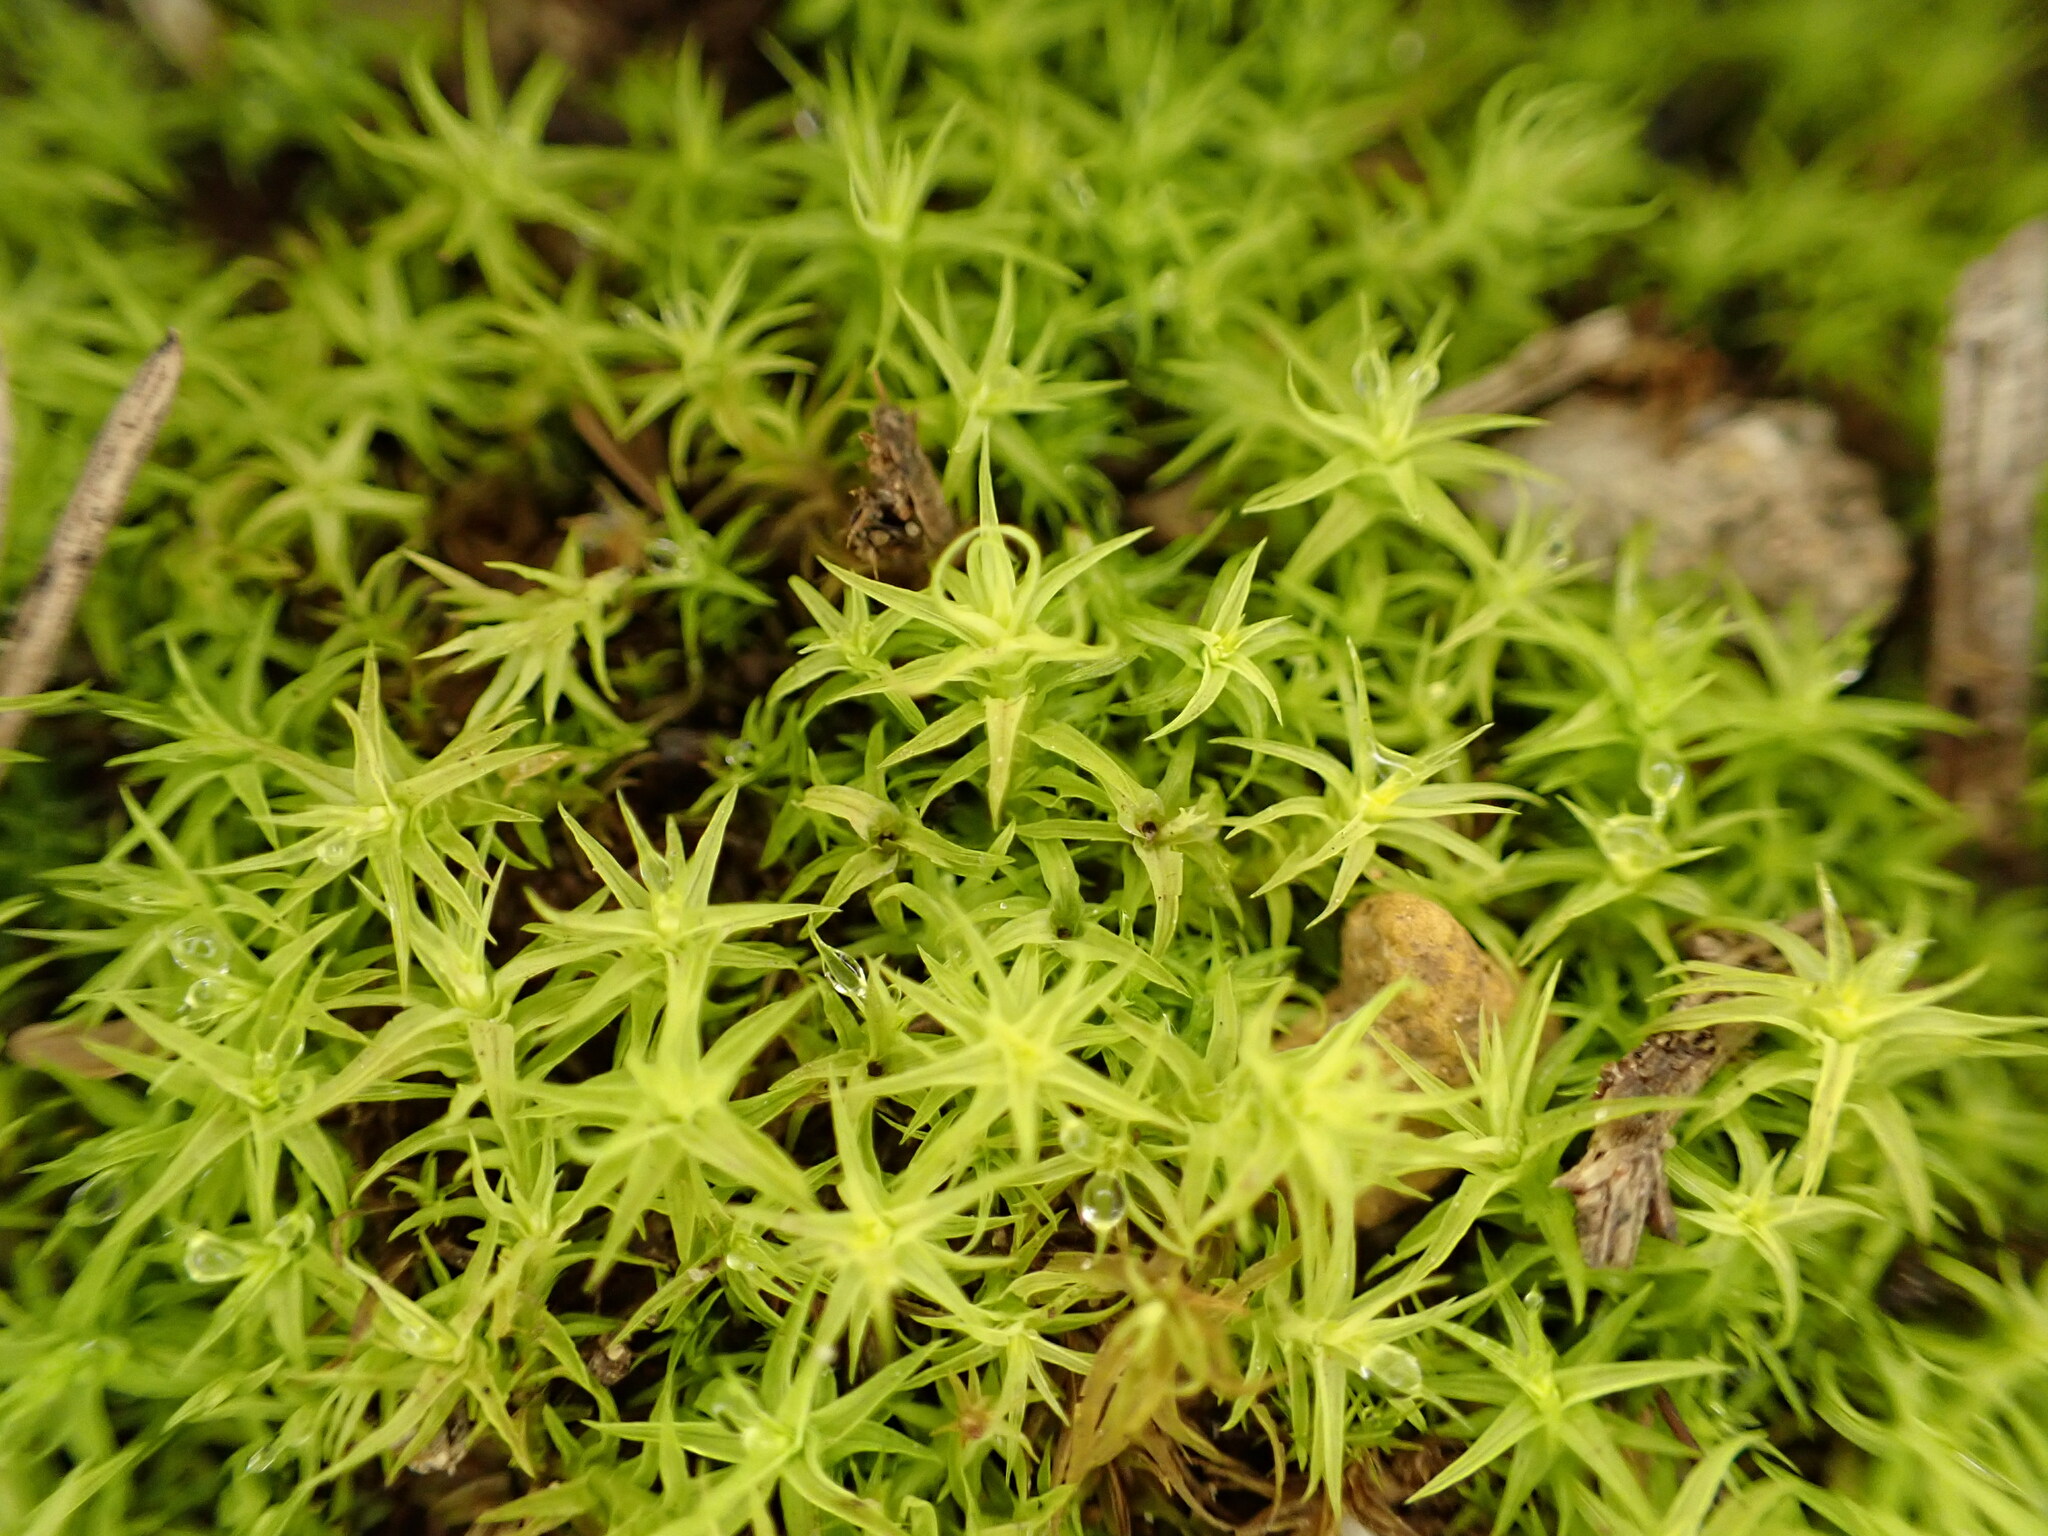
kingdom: Plantae
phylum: Bryophyta
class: Bryopsida
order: Pottiales
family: Pottiaceae
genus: Pleurochaete
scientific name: Pleurochaete squarrosa
